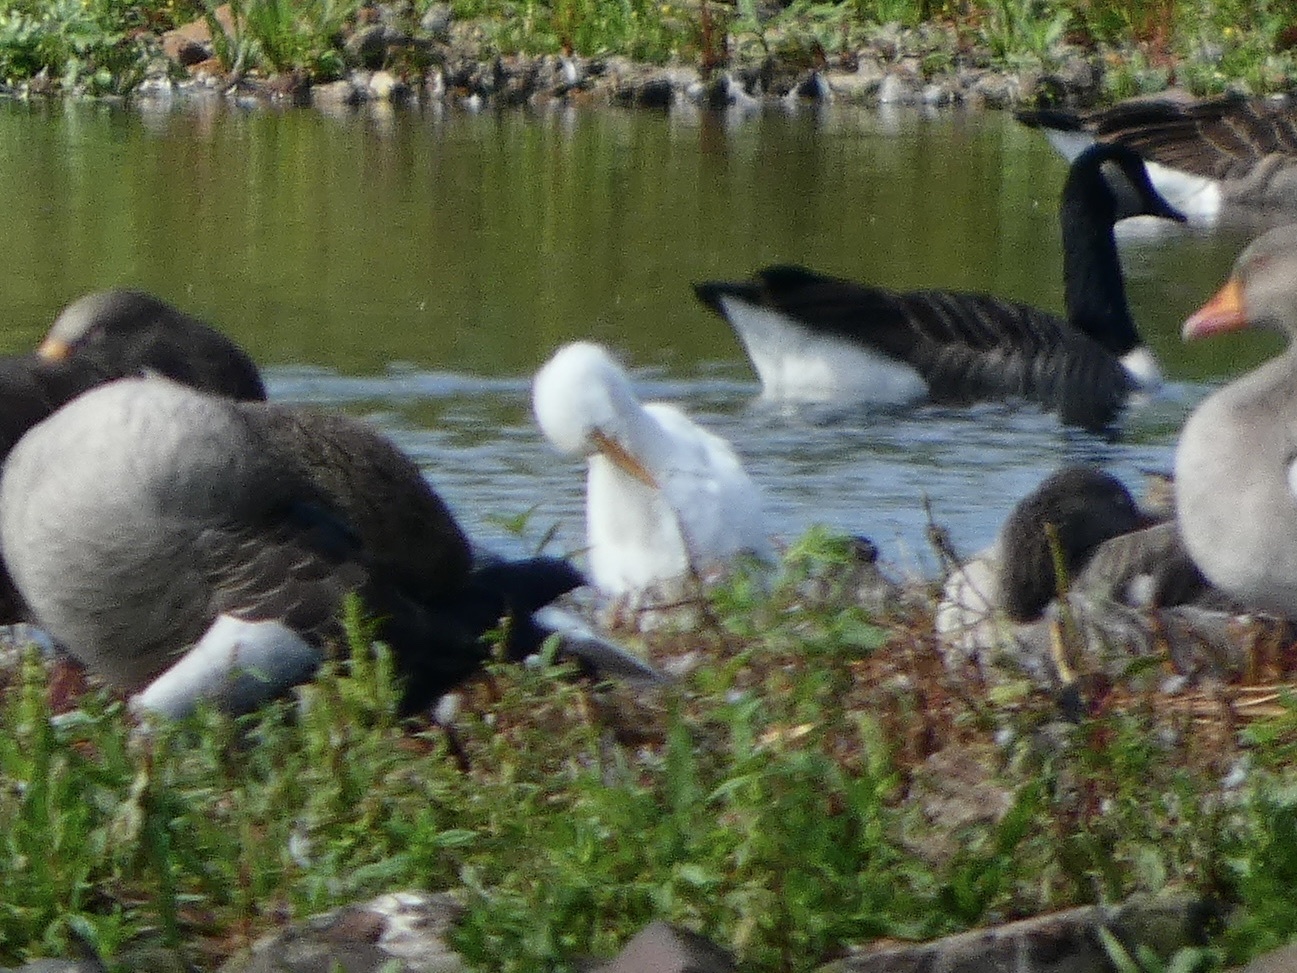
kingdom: Animalia
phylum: Chordata
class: Aves
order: Pelecaniformes
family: Ardeidae
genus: Bubulcus
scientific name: Bubulcus ibis
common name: Cattle egret
